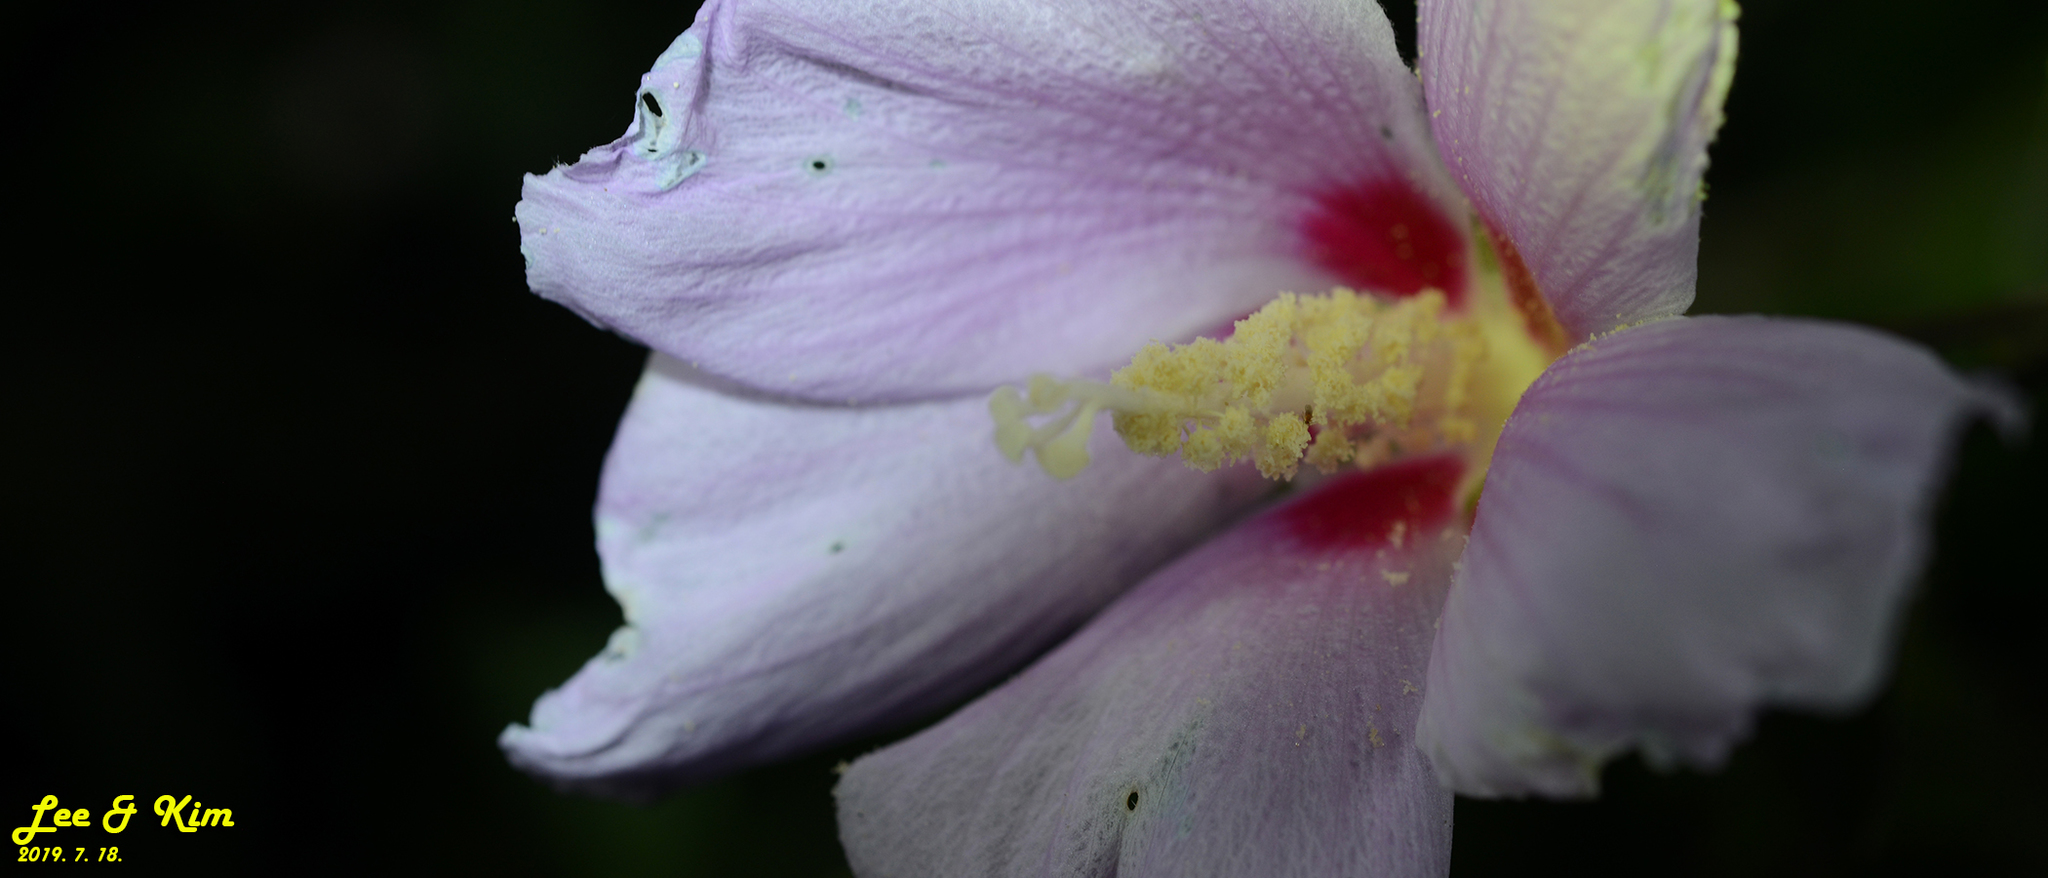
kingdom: Plantae
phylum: Tracheophyta
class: Magnoliopsida
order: Malvales
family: Malvaceae
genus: Hibiscus
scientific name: Hibiscus syriacus
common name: Syrian ketmia
